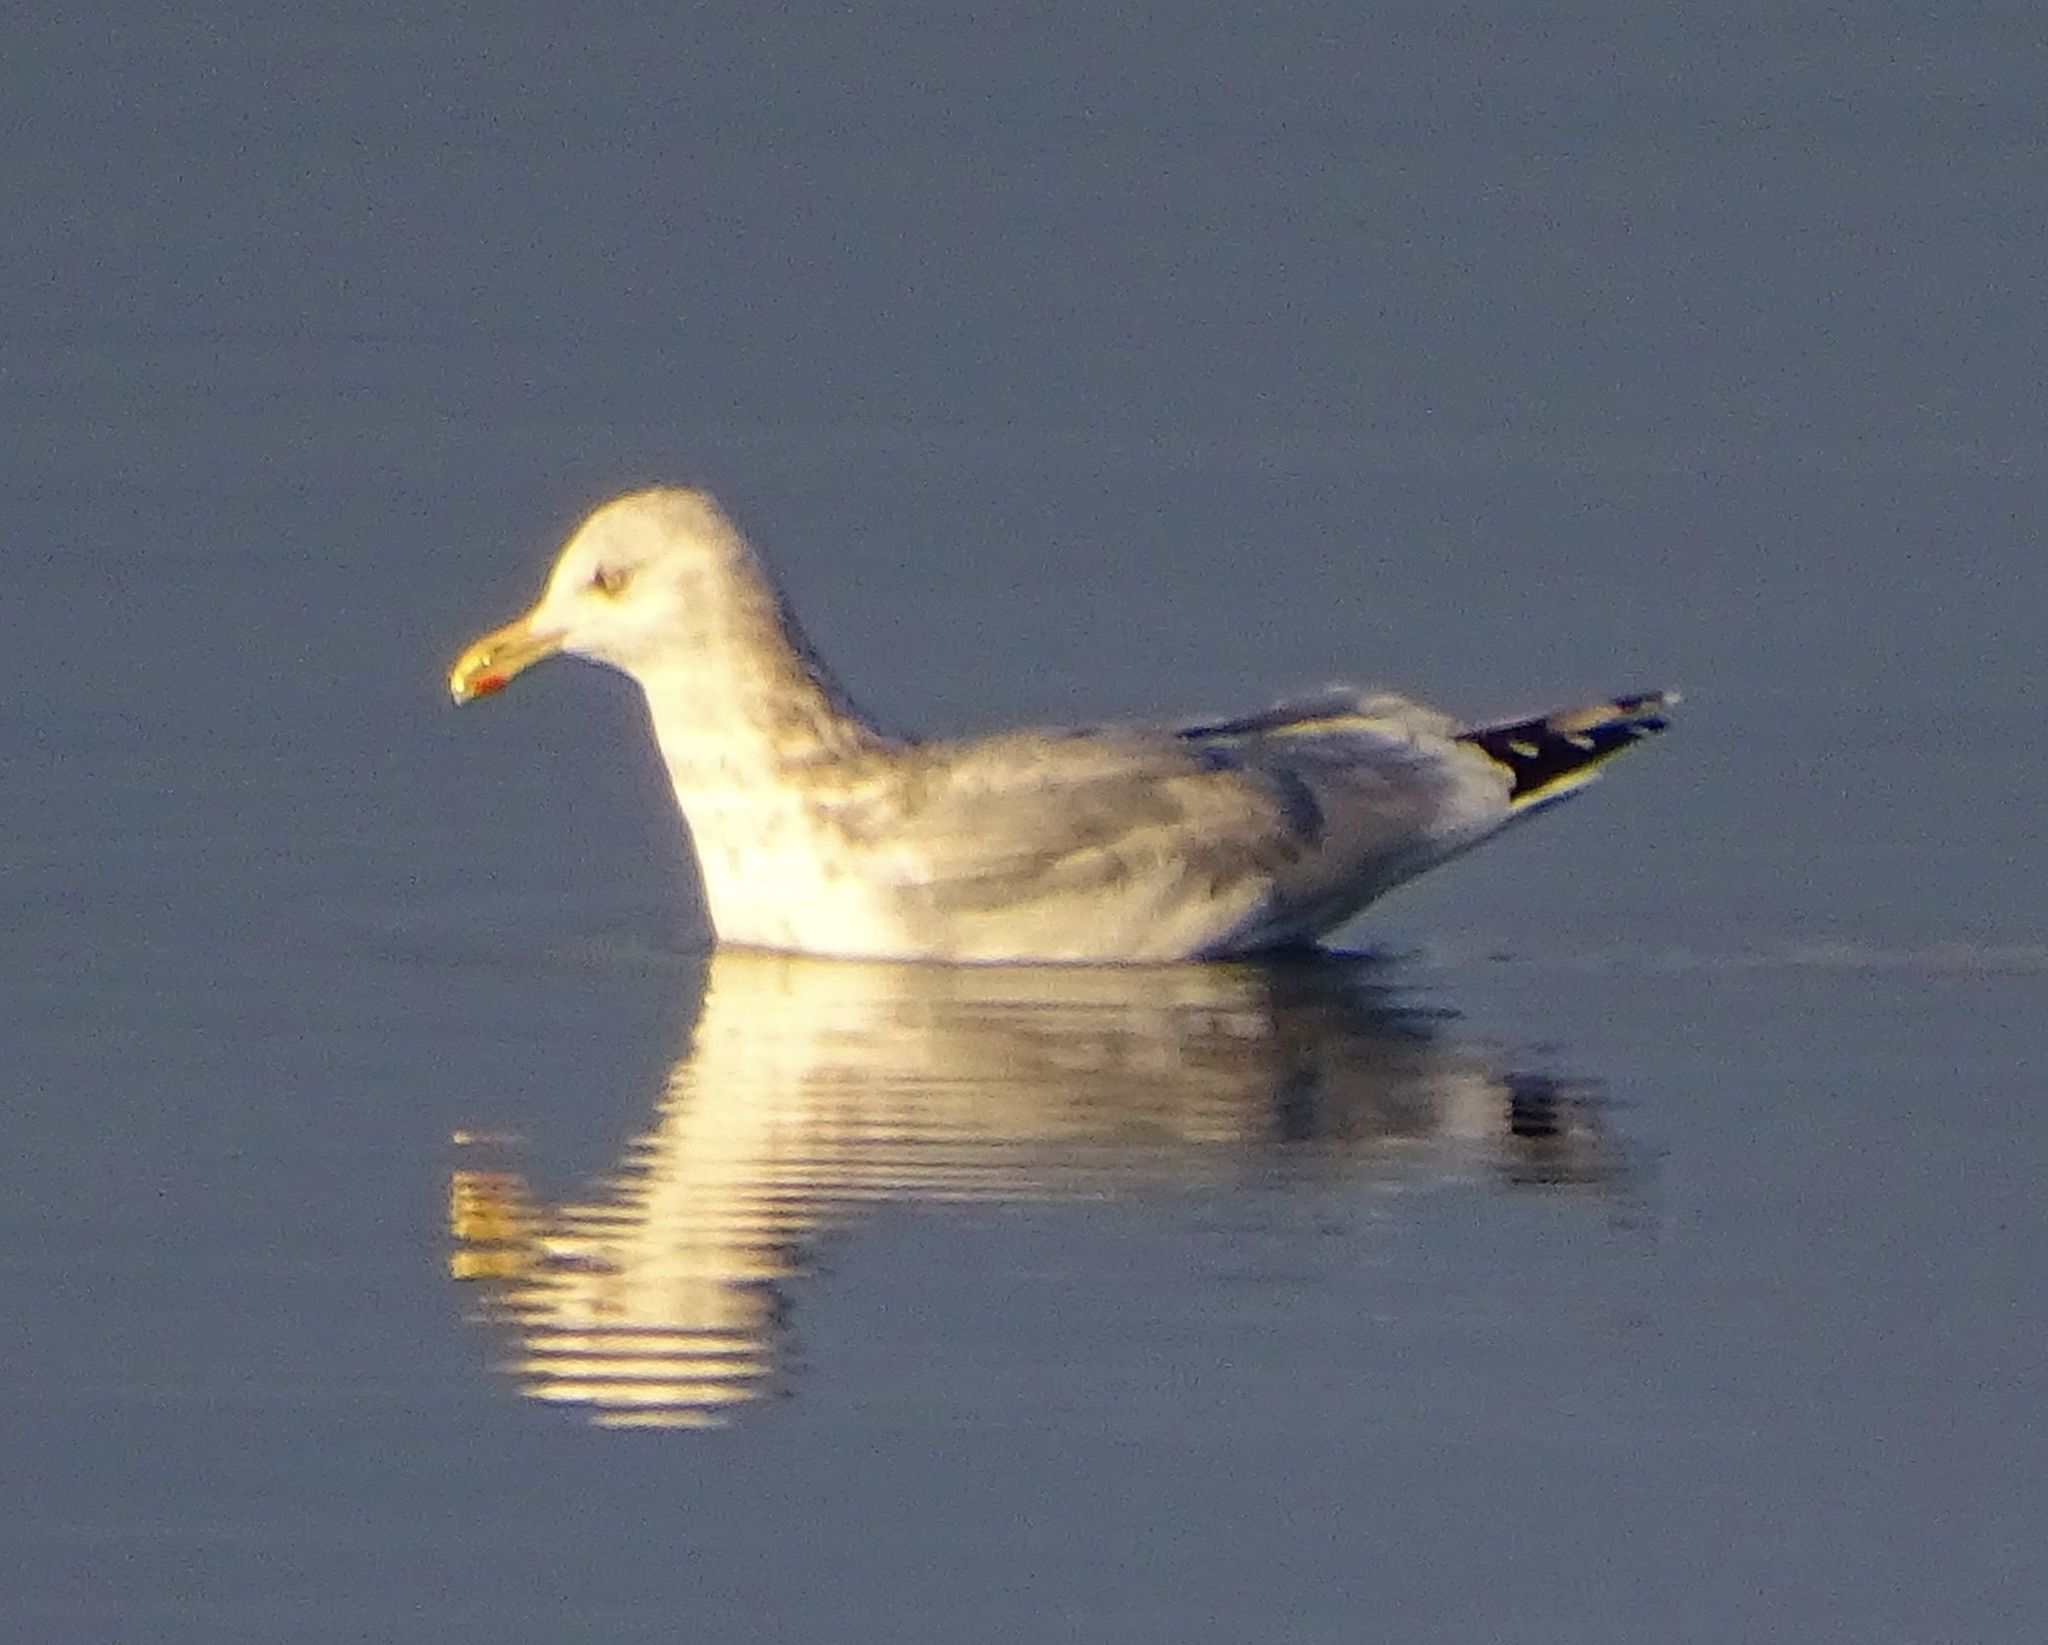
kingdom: Animalia
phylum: Chordata
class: Aves
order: Charadriiformes
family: Laridae
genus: Larus
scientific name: Larus argentatus
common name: Herring gull
